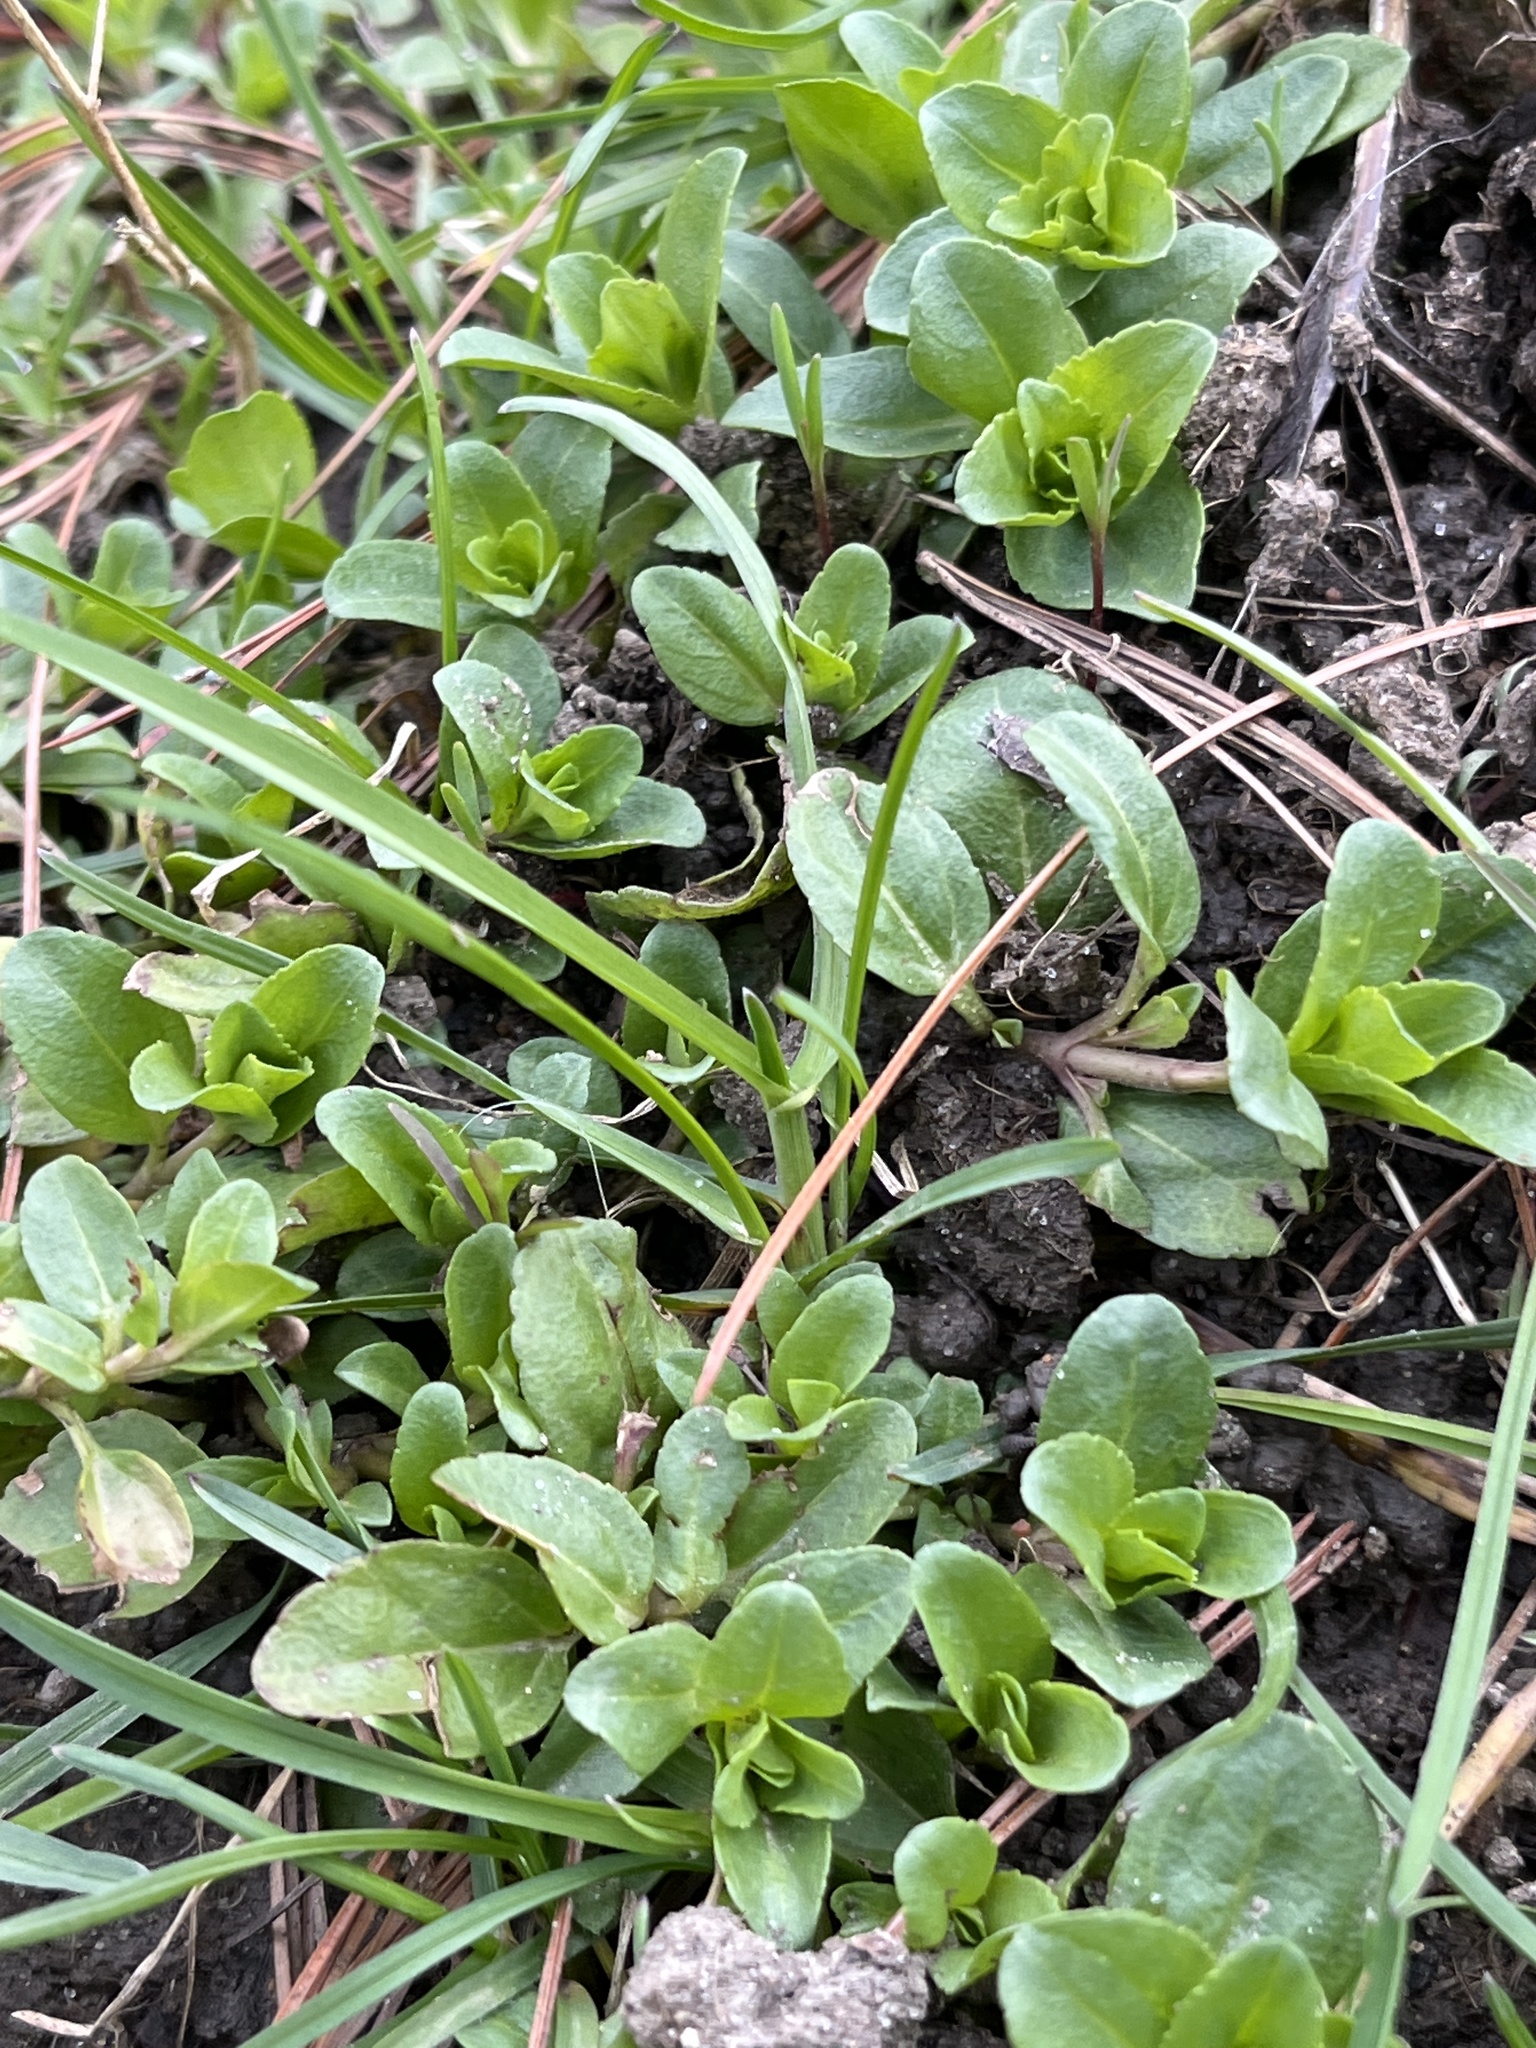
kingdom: Plantae
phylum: Tracheophyta
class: Magnoliopsida
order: Lamiales
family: Plantaginaceae
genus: Veronica
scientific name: Veronica serpyllifolia
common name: Thyme-leaved speedwell
